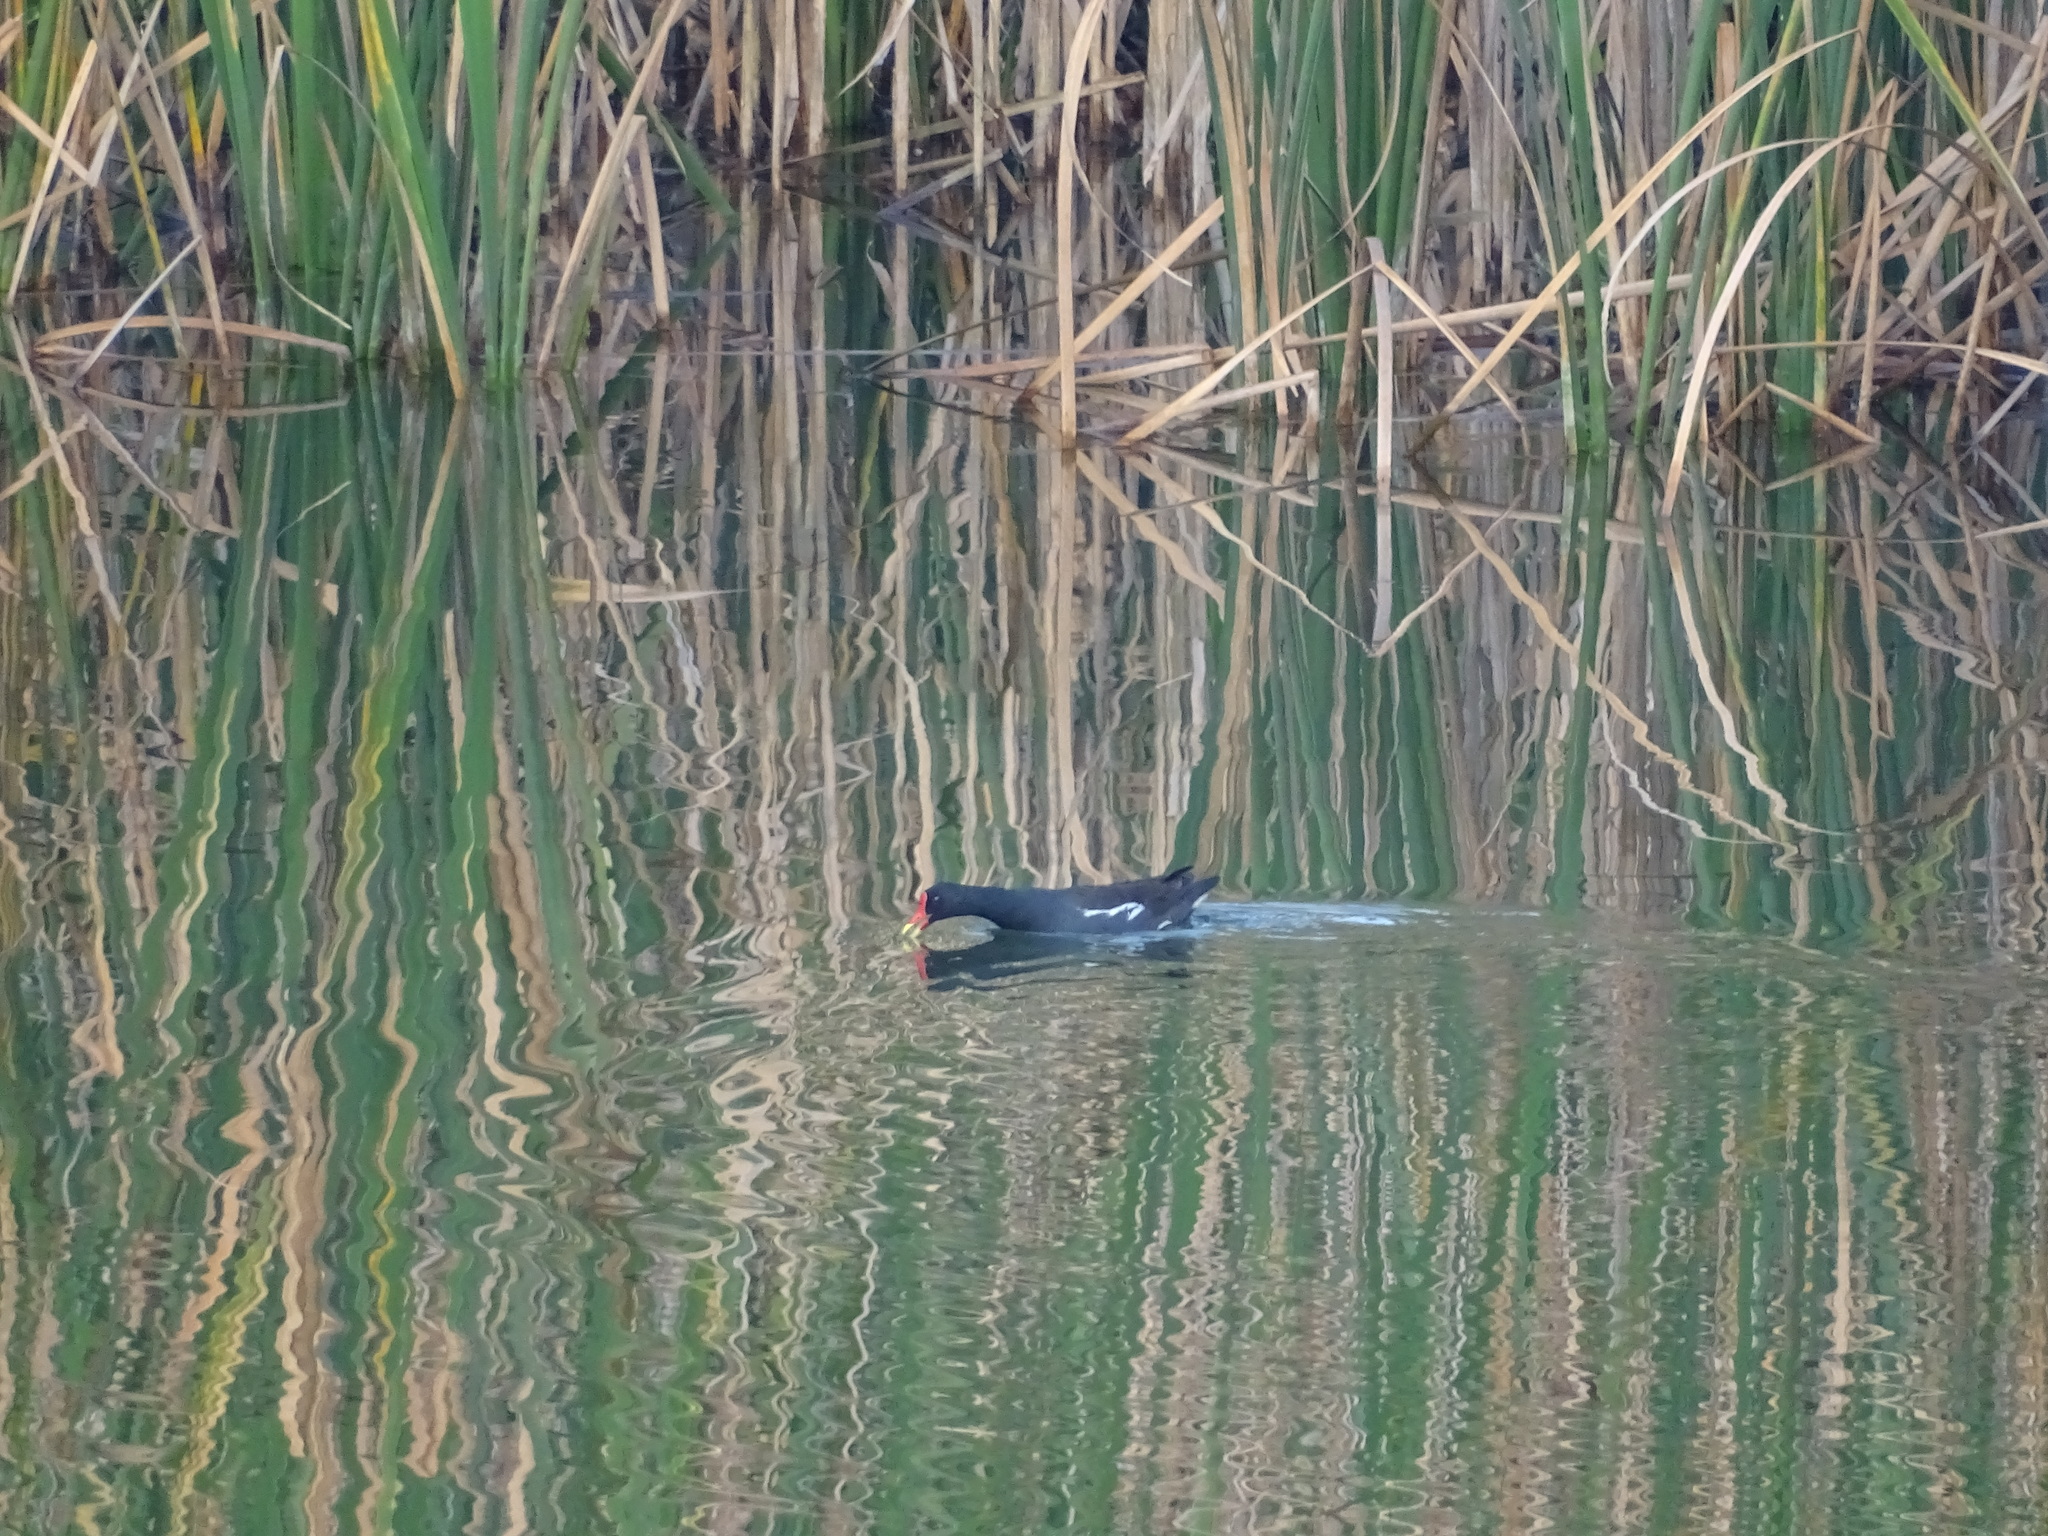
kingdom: Animalia
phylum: Chordata
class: Aves
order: Gruiformes
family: Rallidae
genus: Gallinula
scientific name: Gallinula chloropus
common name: Common moorhen
